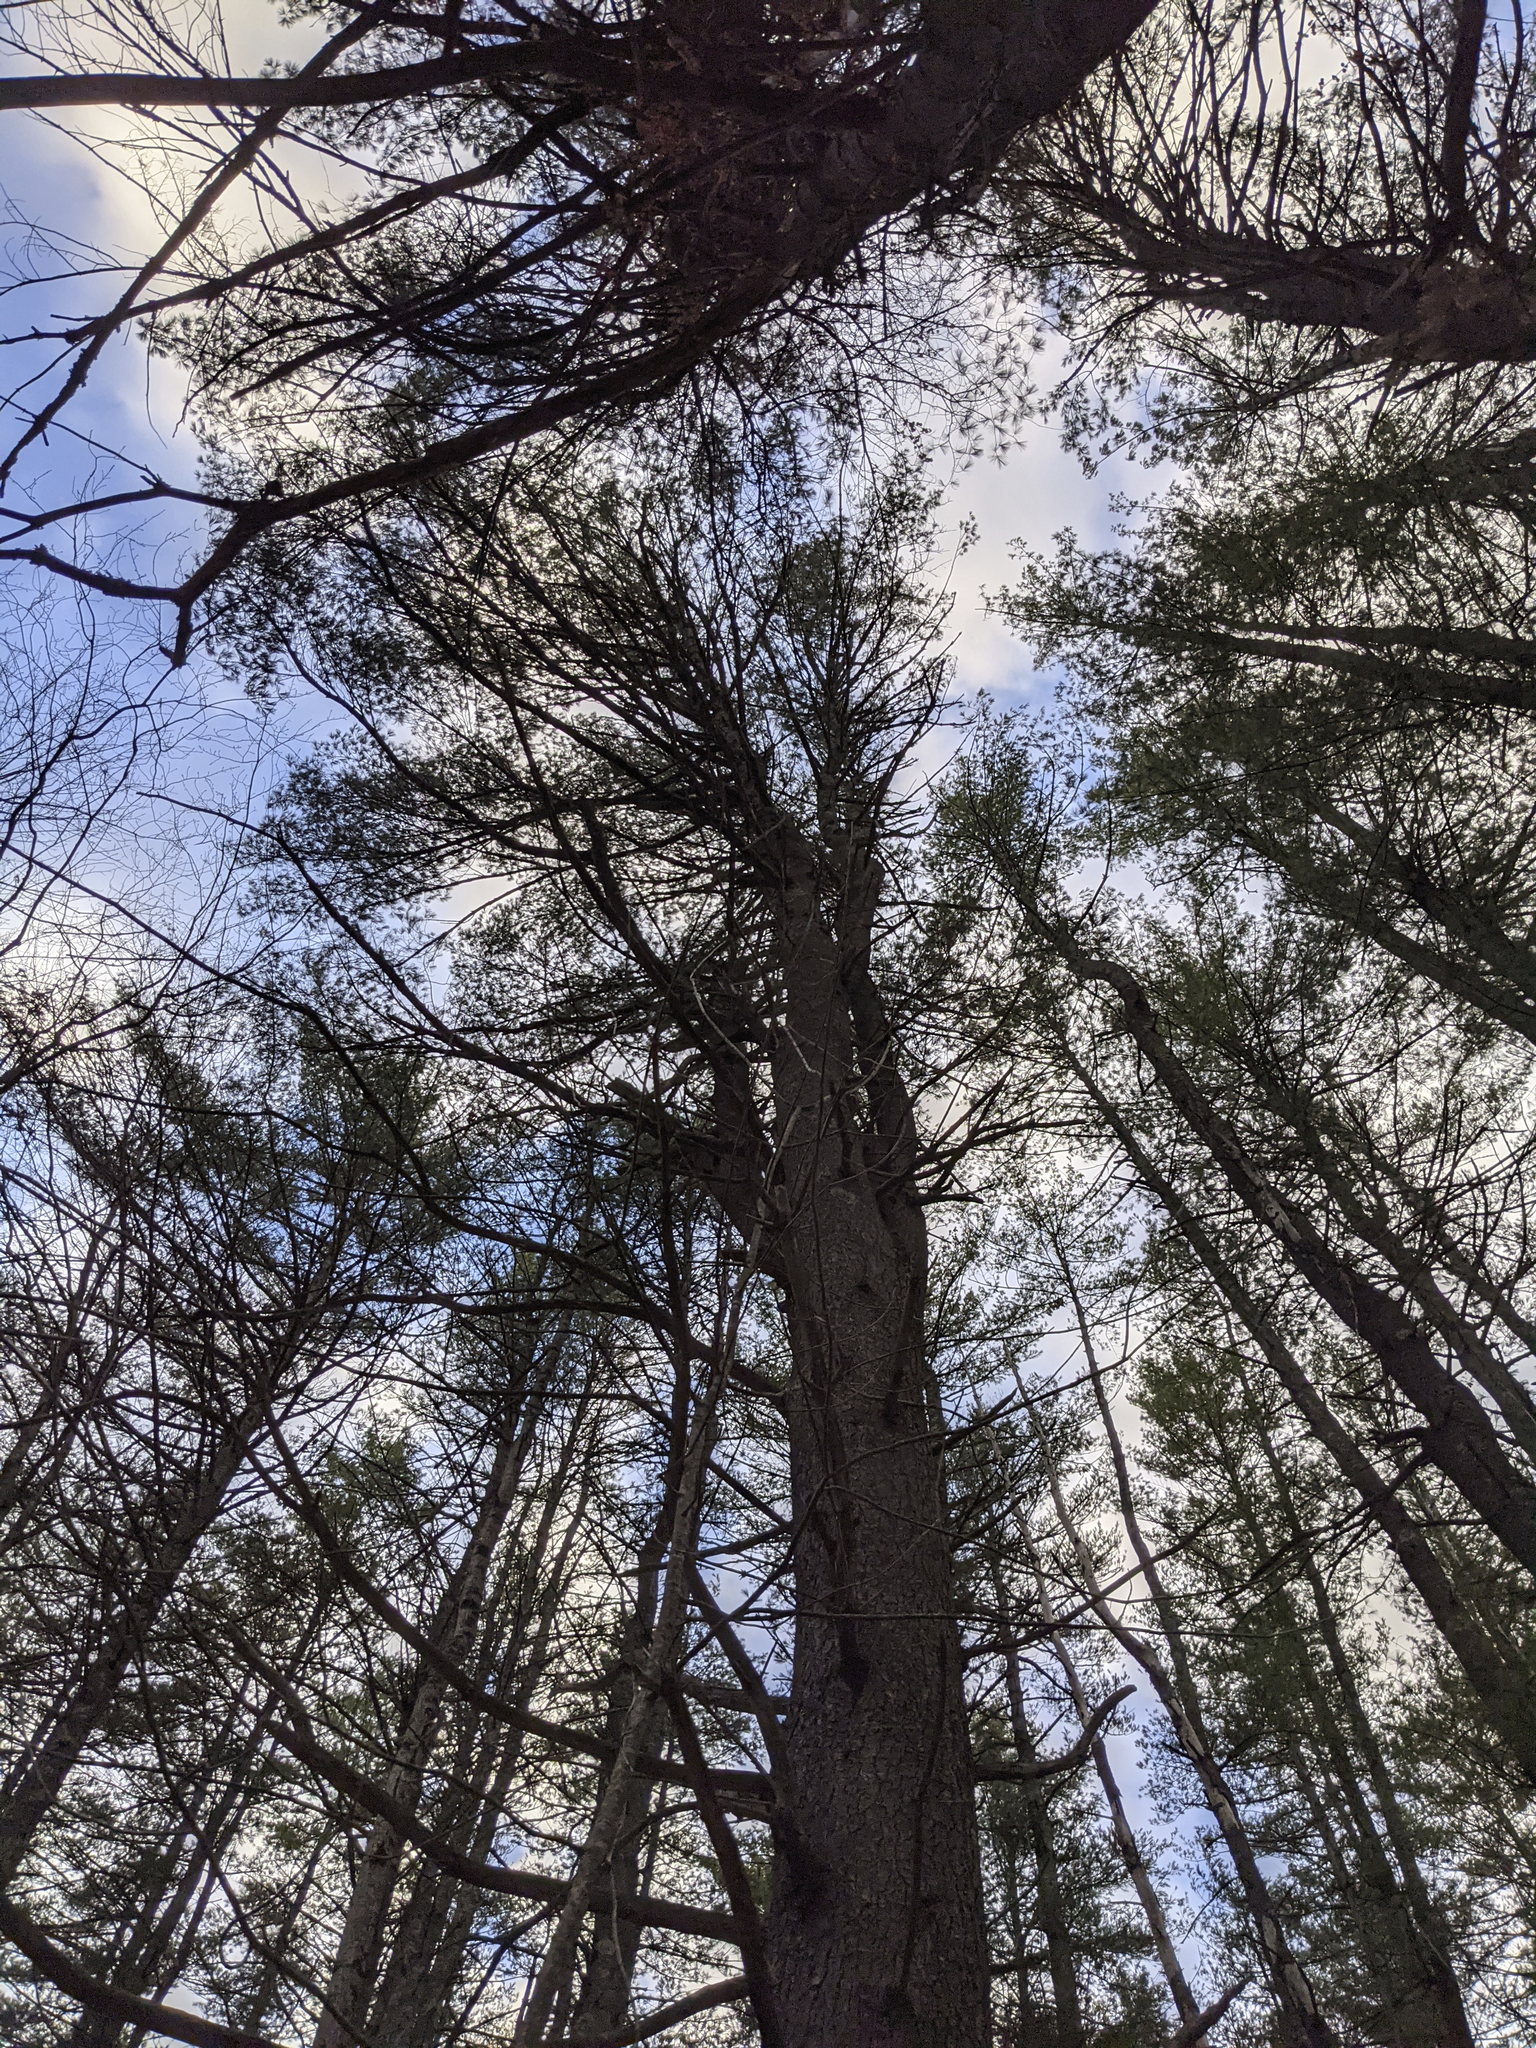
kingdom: Plantae
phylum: Tracheophyta
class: Pinopsida
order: Pinales
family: Pinaceae
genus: Pinus
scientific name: Pinus strobus
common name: Weymouth pine
